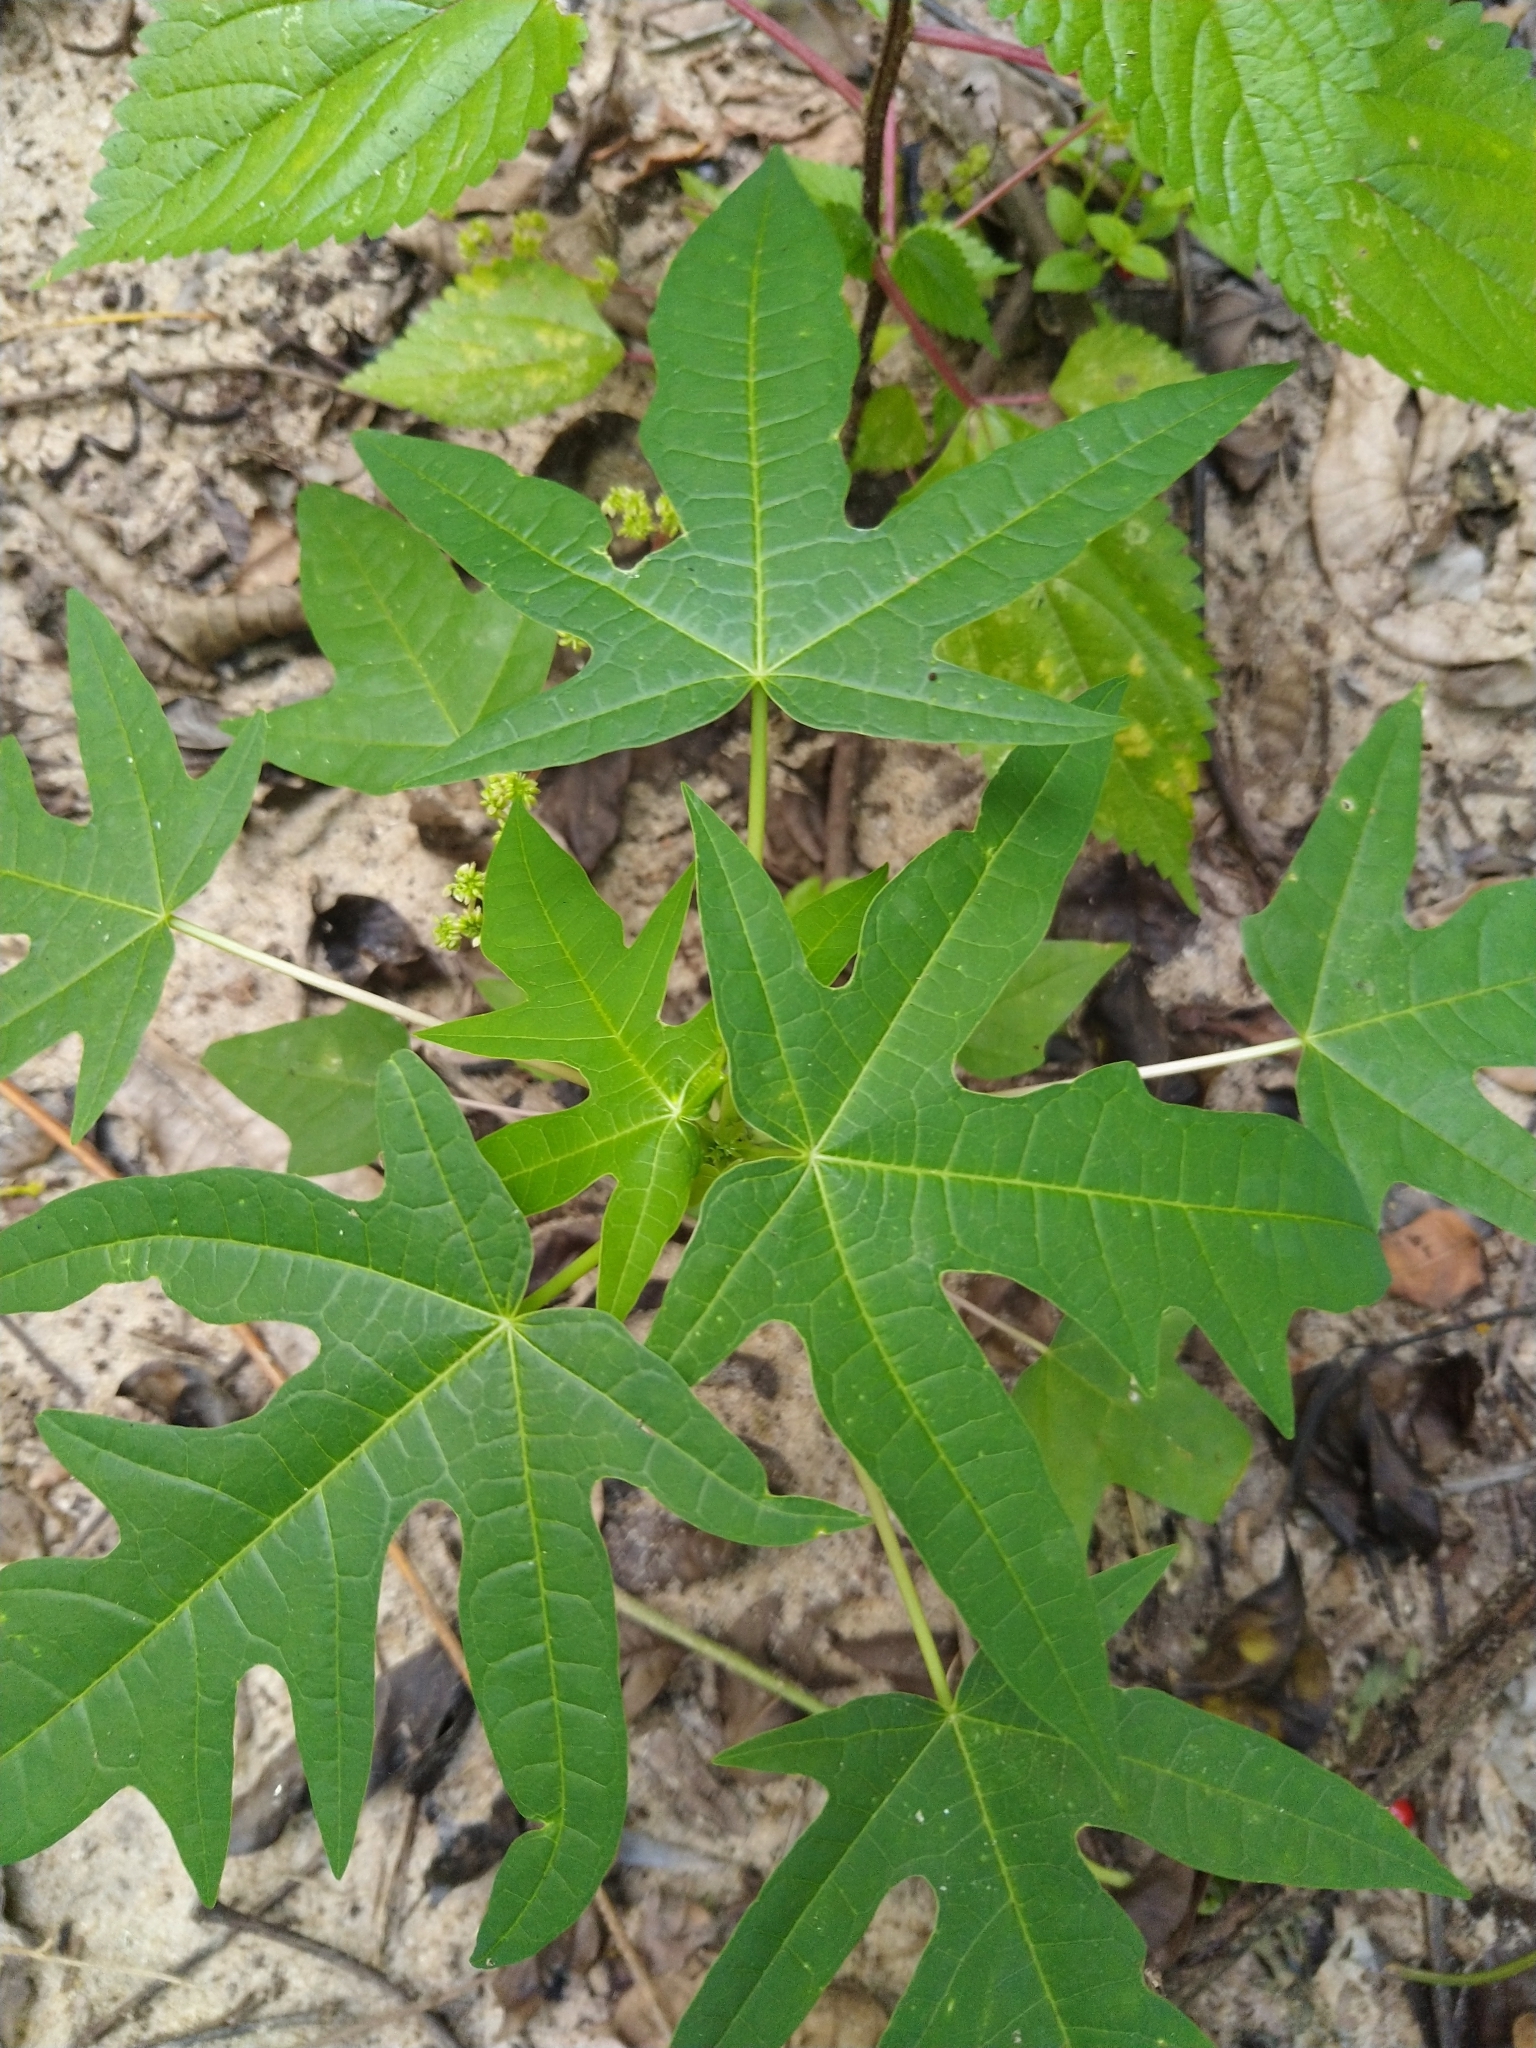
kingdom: Plantae
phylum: Tracheophyta
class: Magnoliopsida
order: Brassicales
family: Caricaceae
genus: Carica
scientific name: Carica papaya
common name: Papaya
